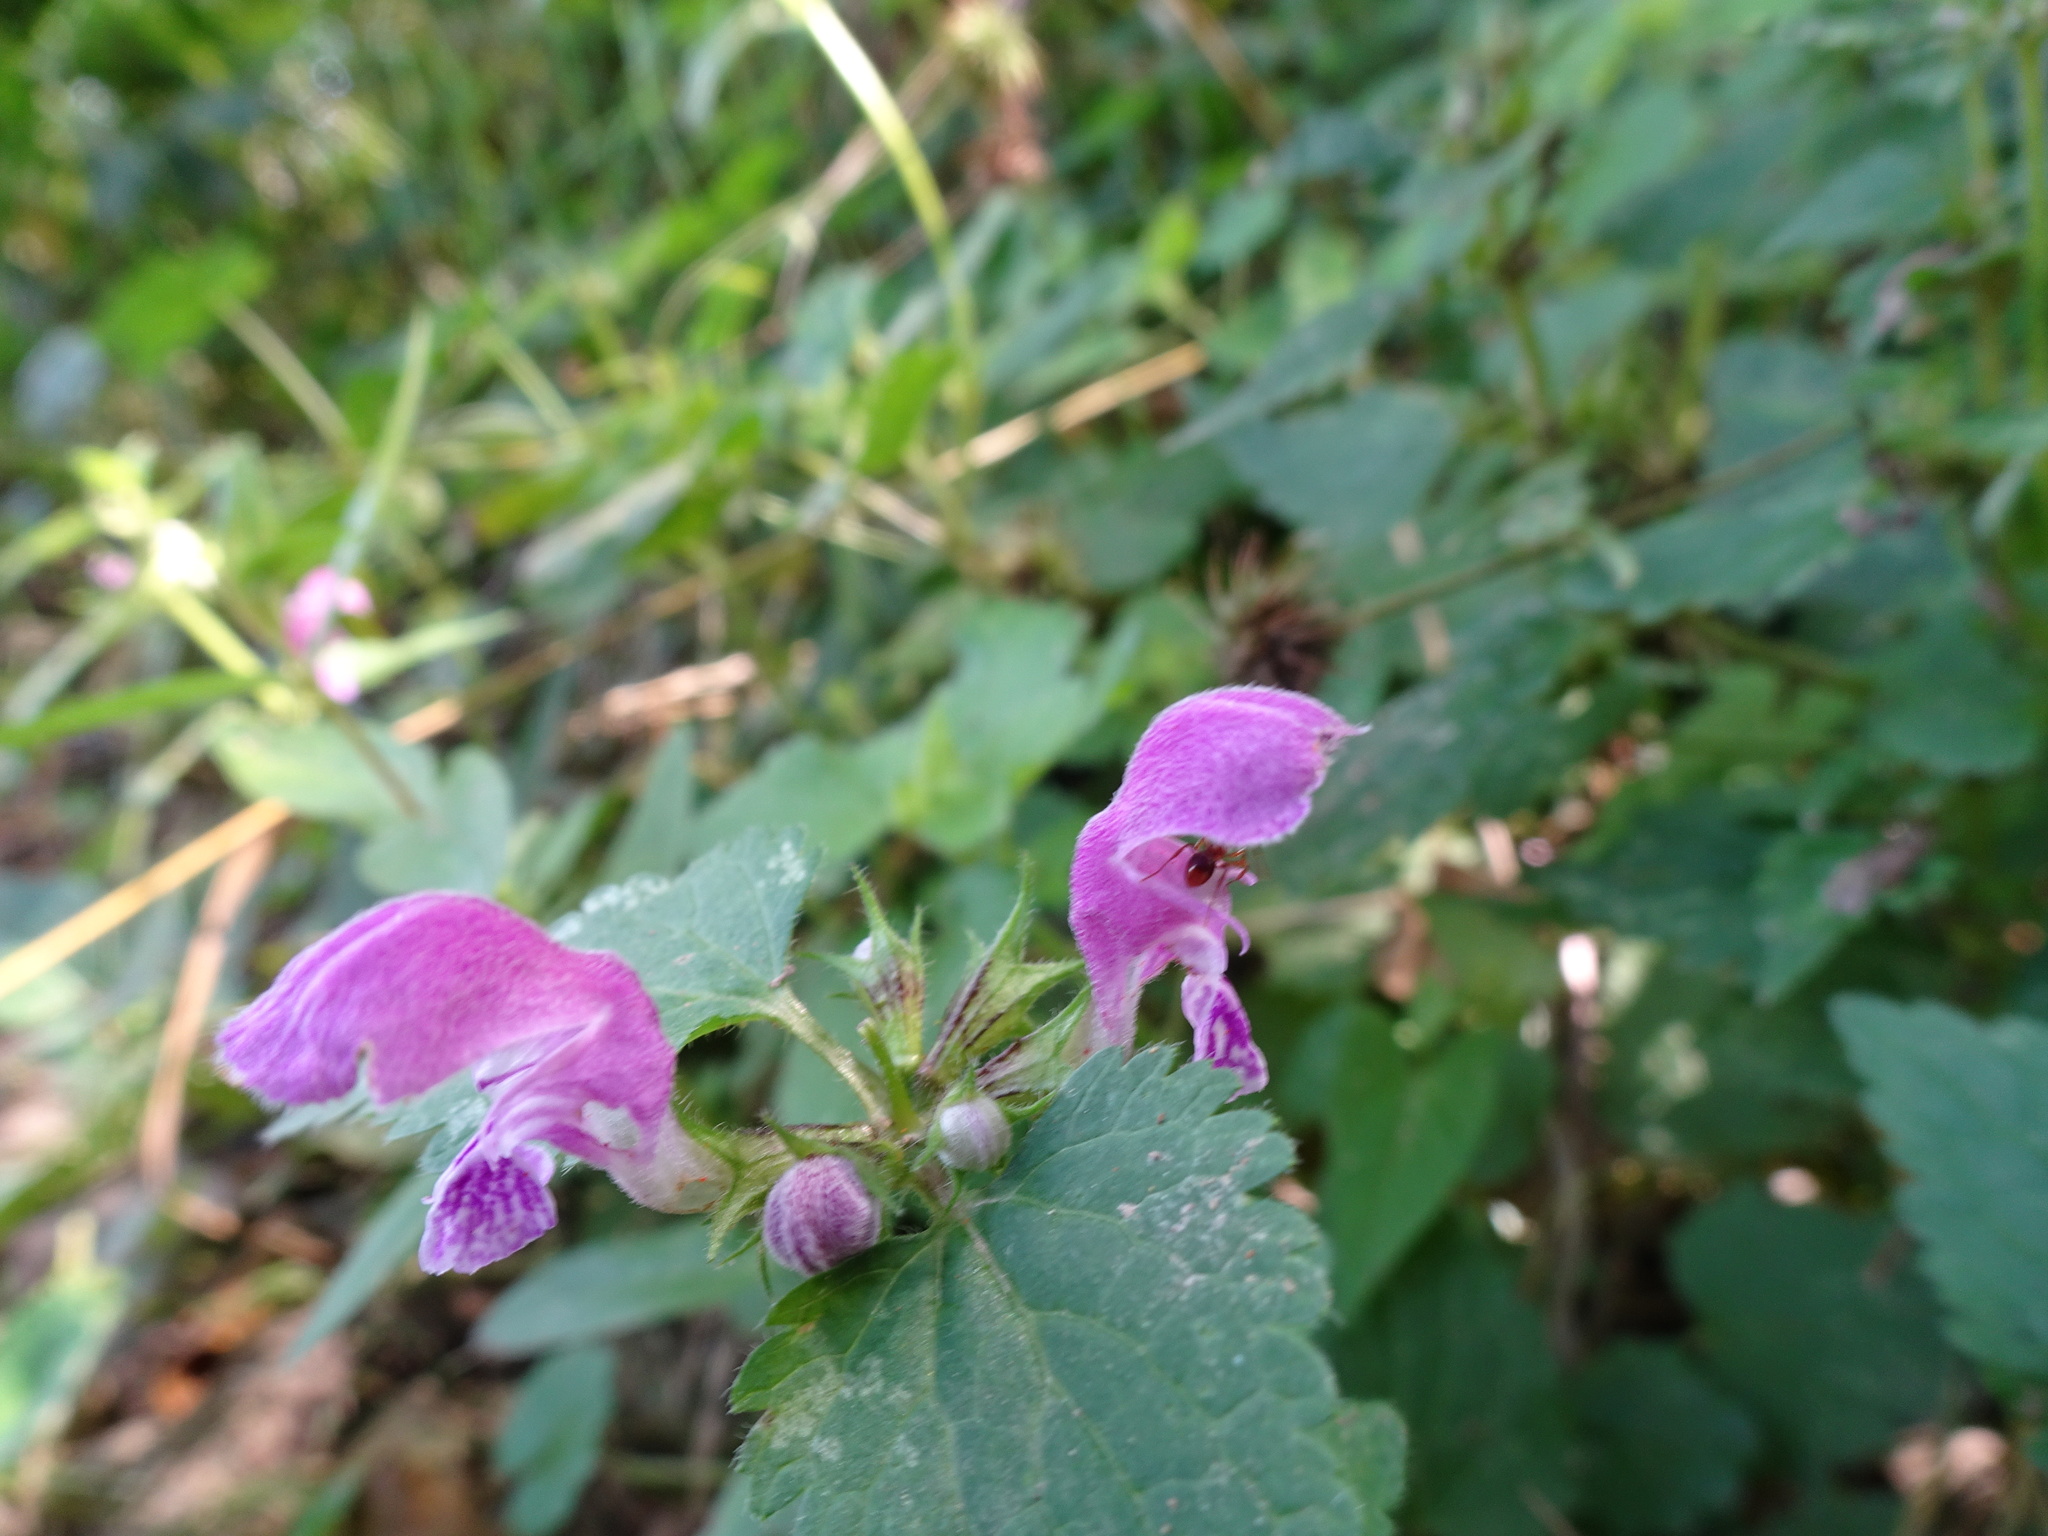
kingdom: Plantae
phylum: Tracheophyta
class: Magnoliopsida
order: Lamiales
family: Lamiaceae
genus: Lamium
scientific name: Lamium maculatum
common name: Spotted dead-nettle
